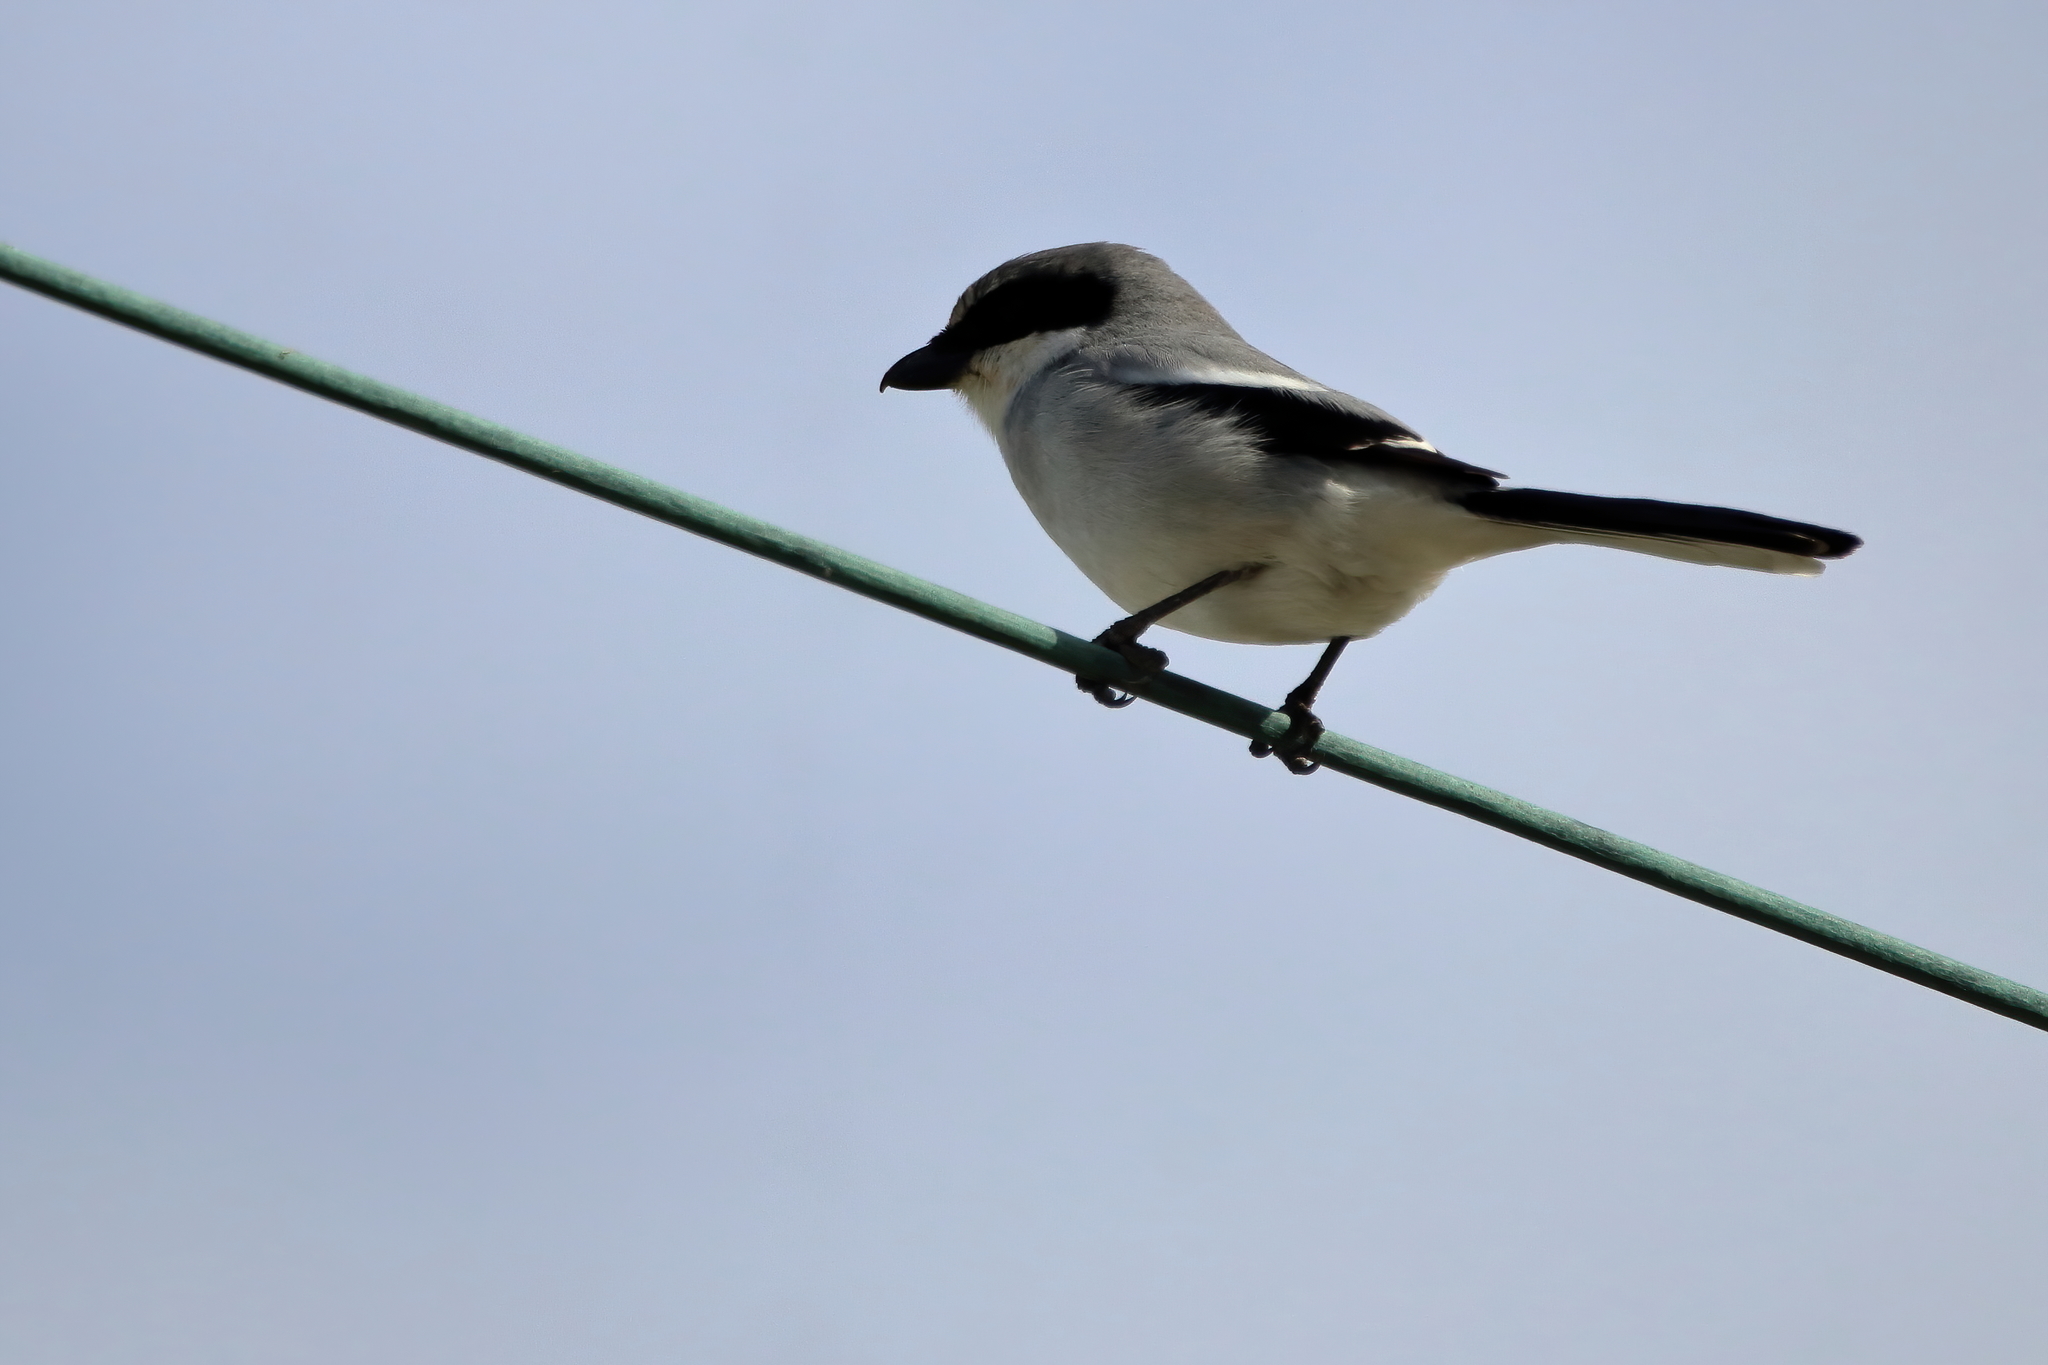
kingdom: Animalia
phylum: Chordata
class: Aves
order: Passeriformes
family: Laniidae
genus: Lanius
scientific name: Lanius ludovicianus
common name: Loggerhead shrike
